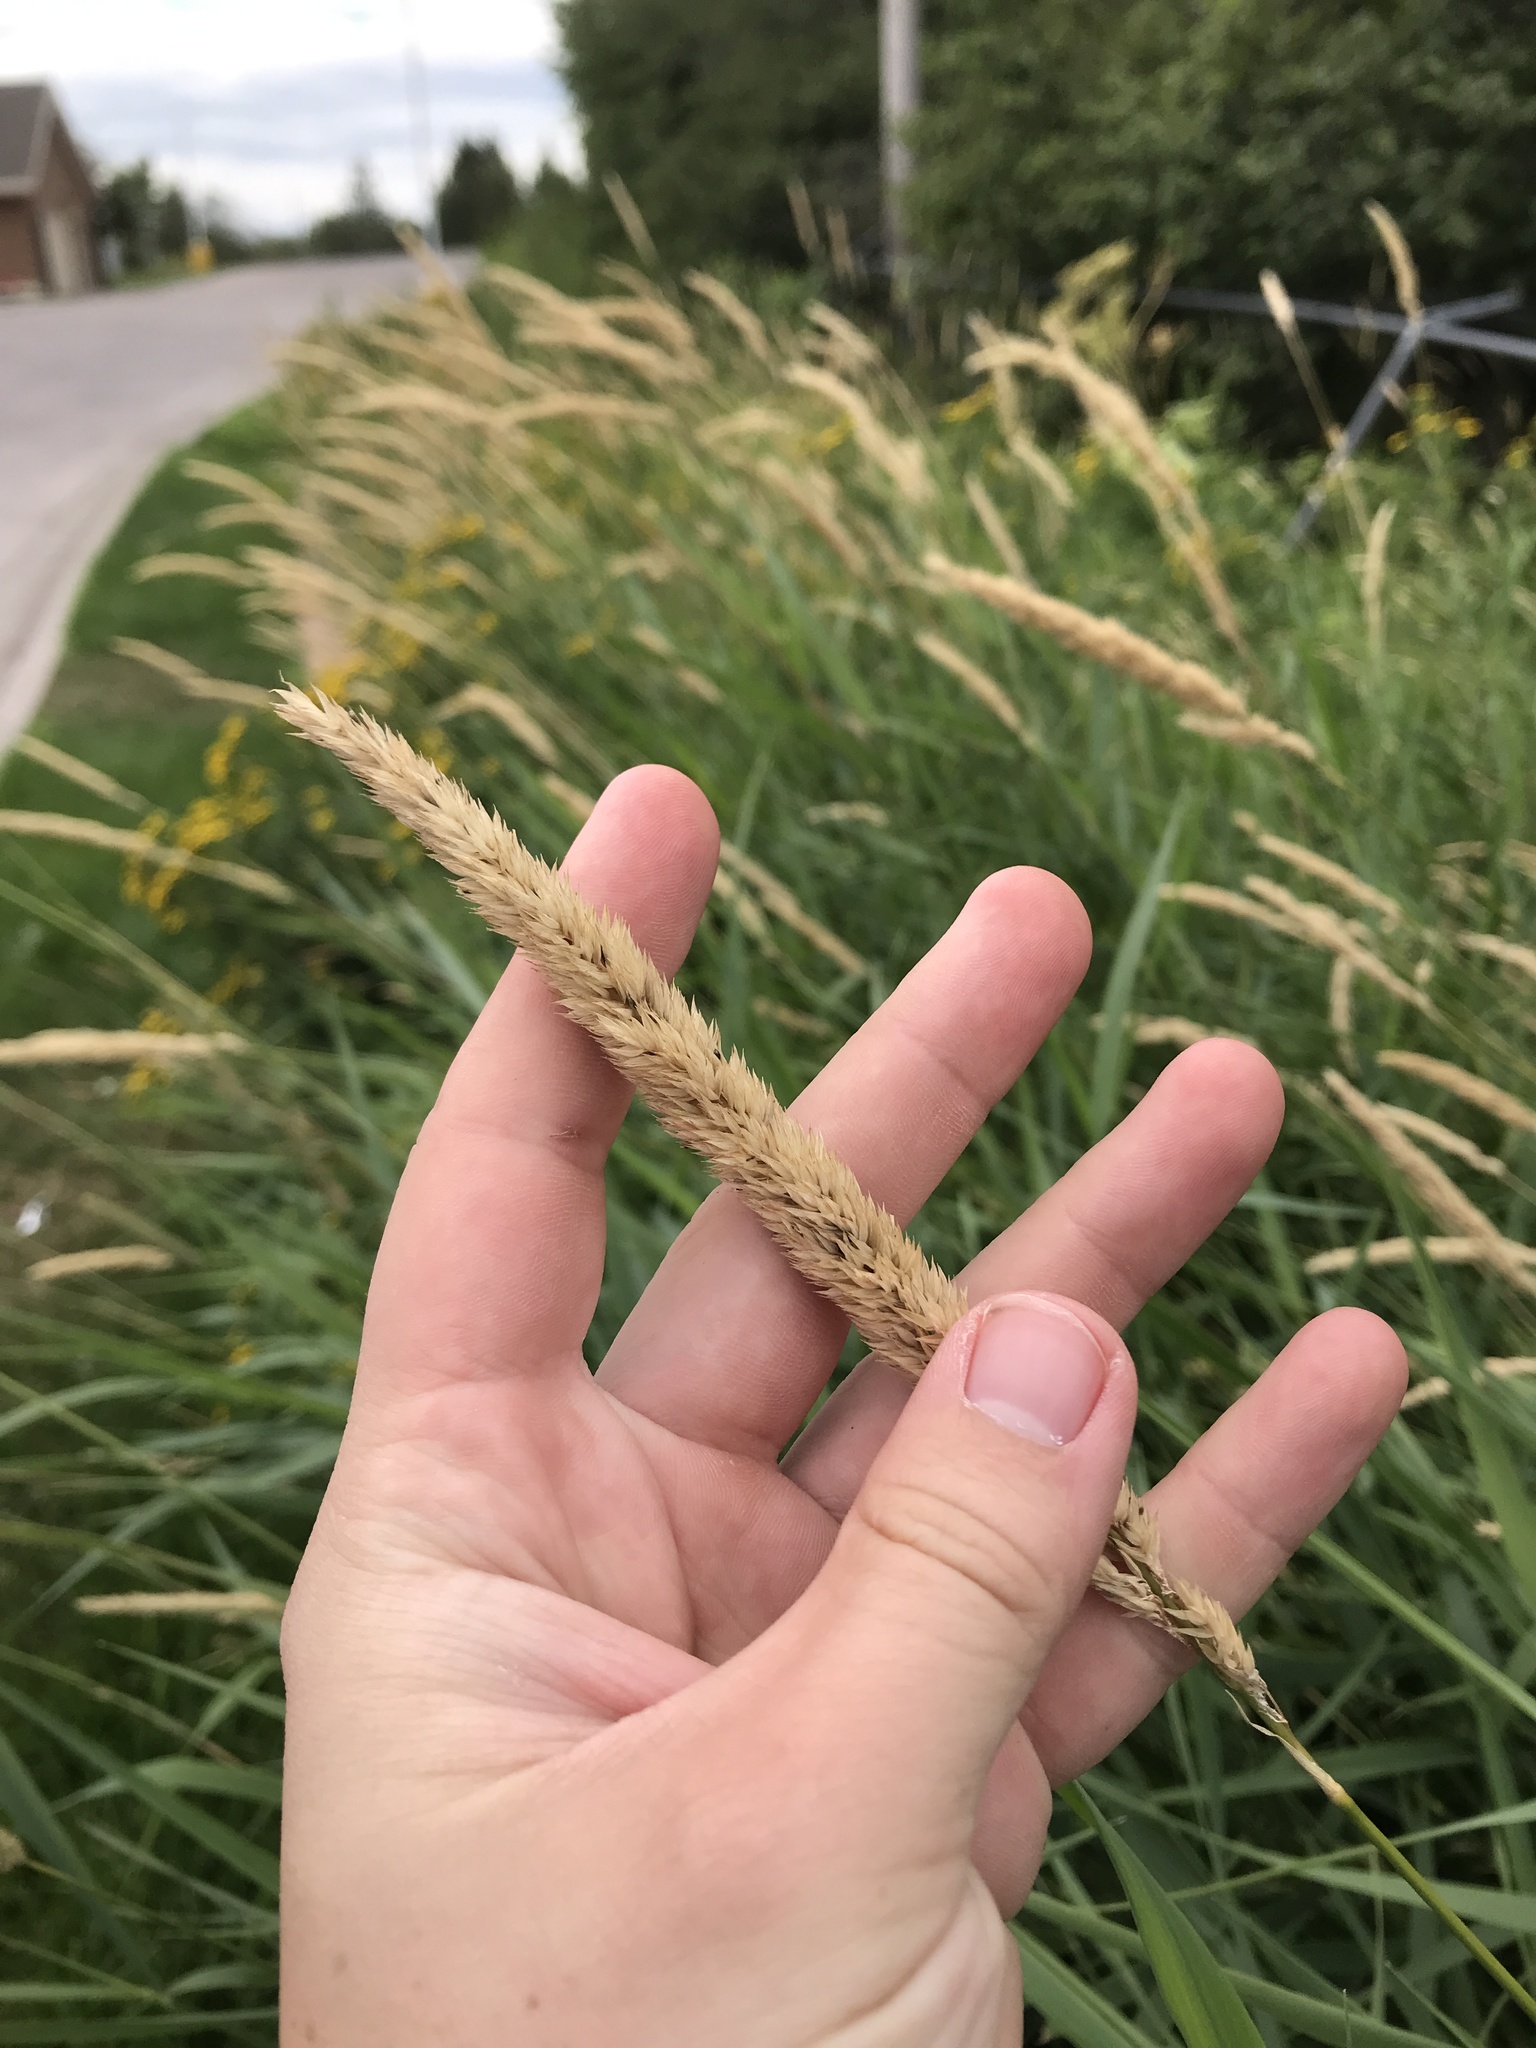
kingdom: Plantae
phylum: Tracheophyta
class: Liliopsida
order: Poales
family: Poaceae
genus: Phalaris
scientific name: Phalaris arundinacea
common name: Reed canary-grass
